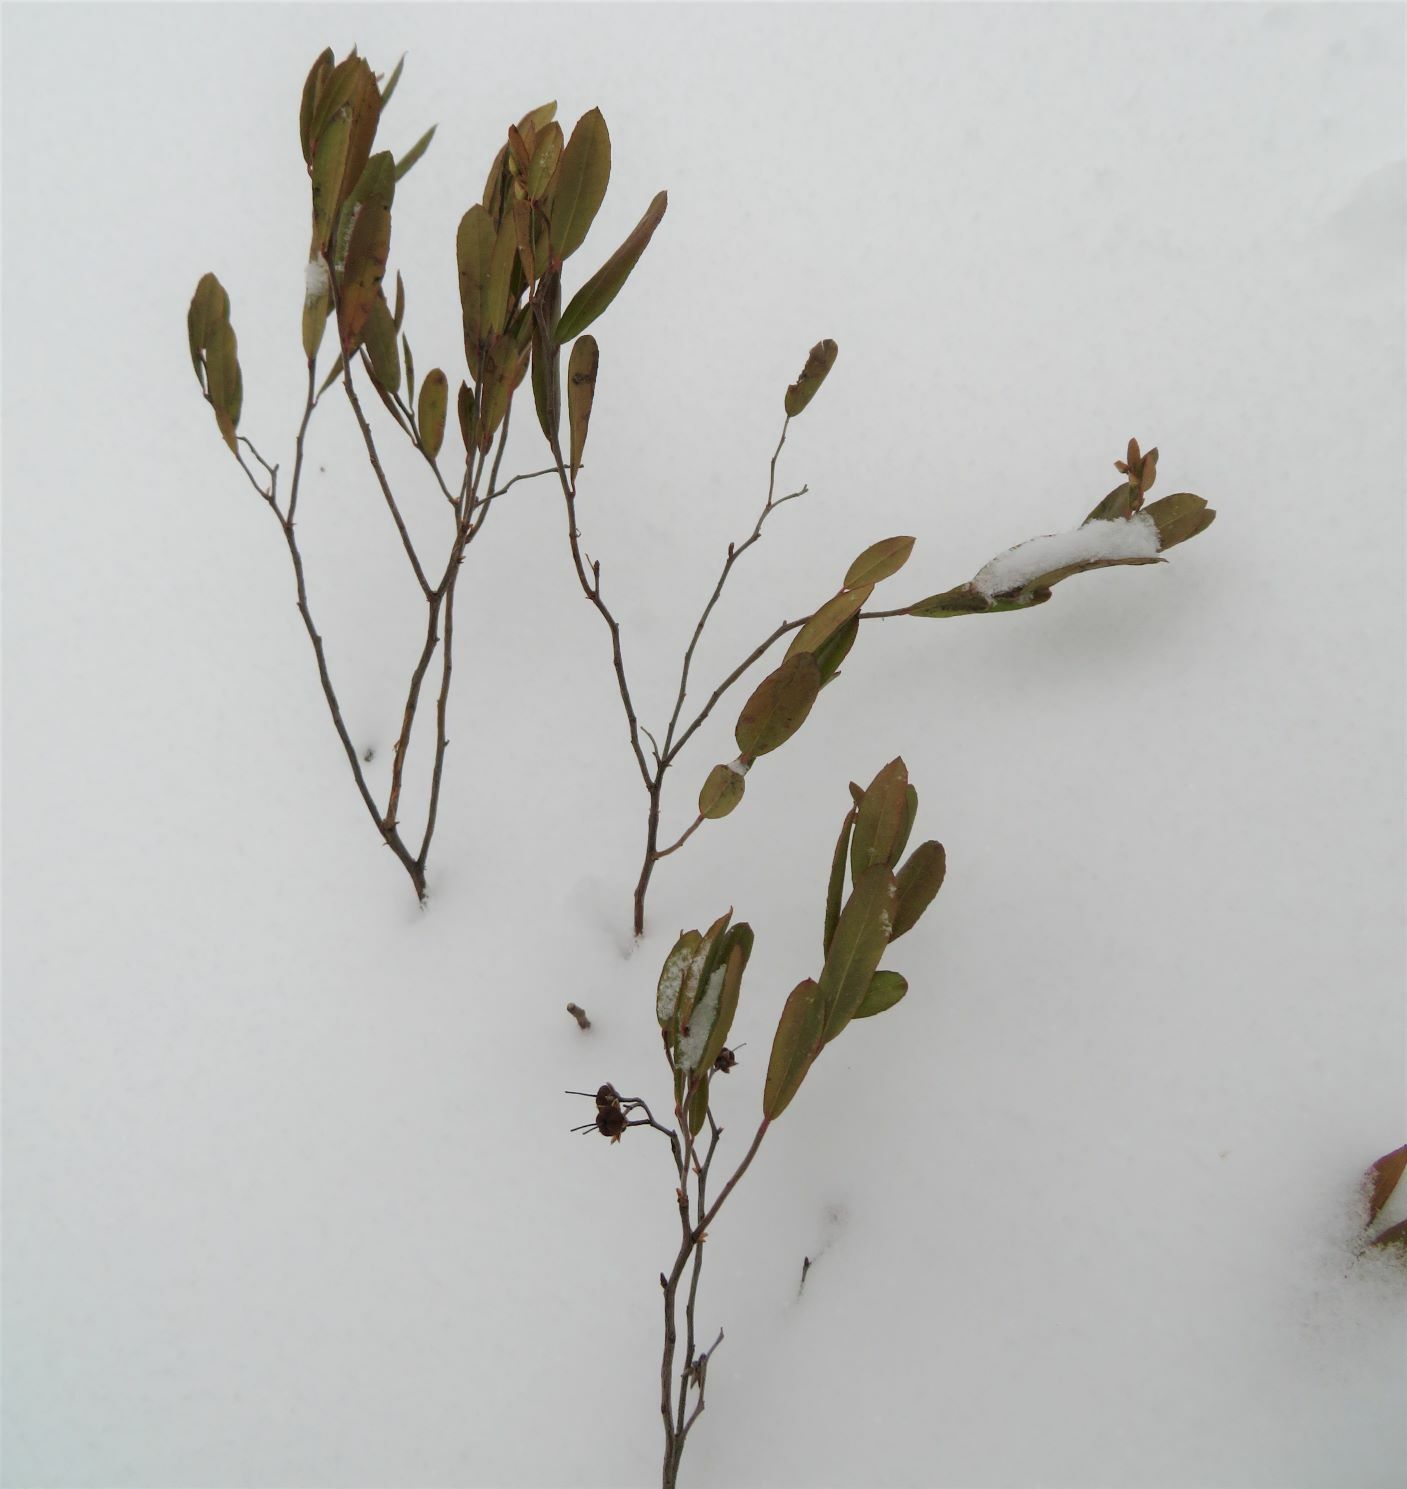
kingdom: Plantae
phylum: Tracheophyta
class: Magnoliopsida
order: Ericales
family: Ericaceae
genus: Chamaedaphne
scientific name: Chamaedaphne calyculata
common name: Leatherleaf
